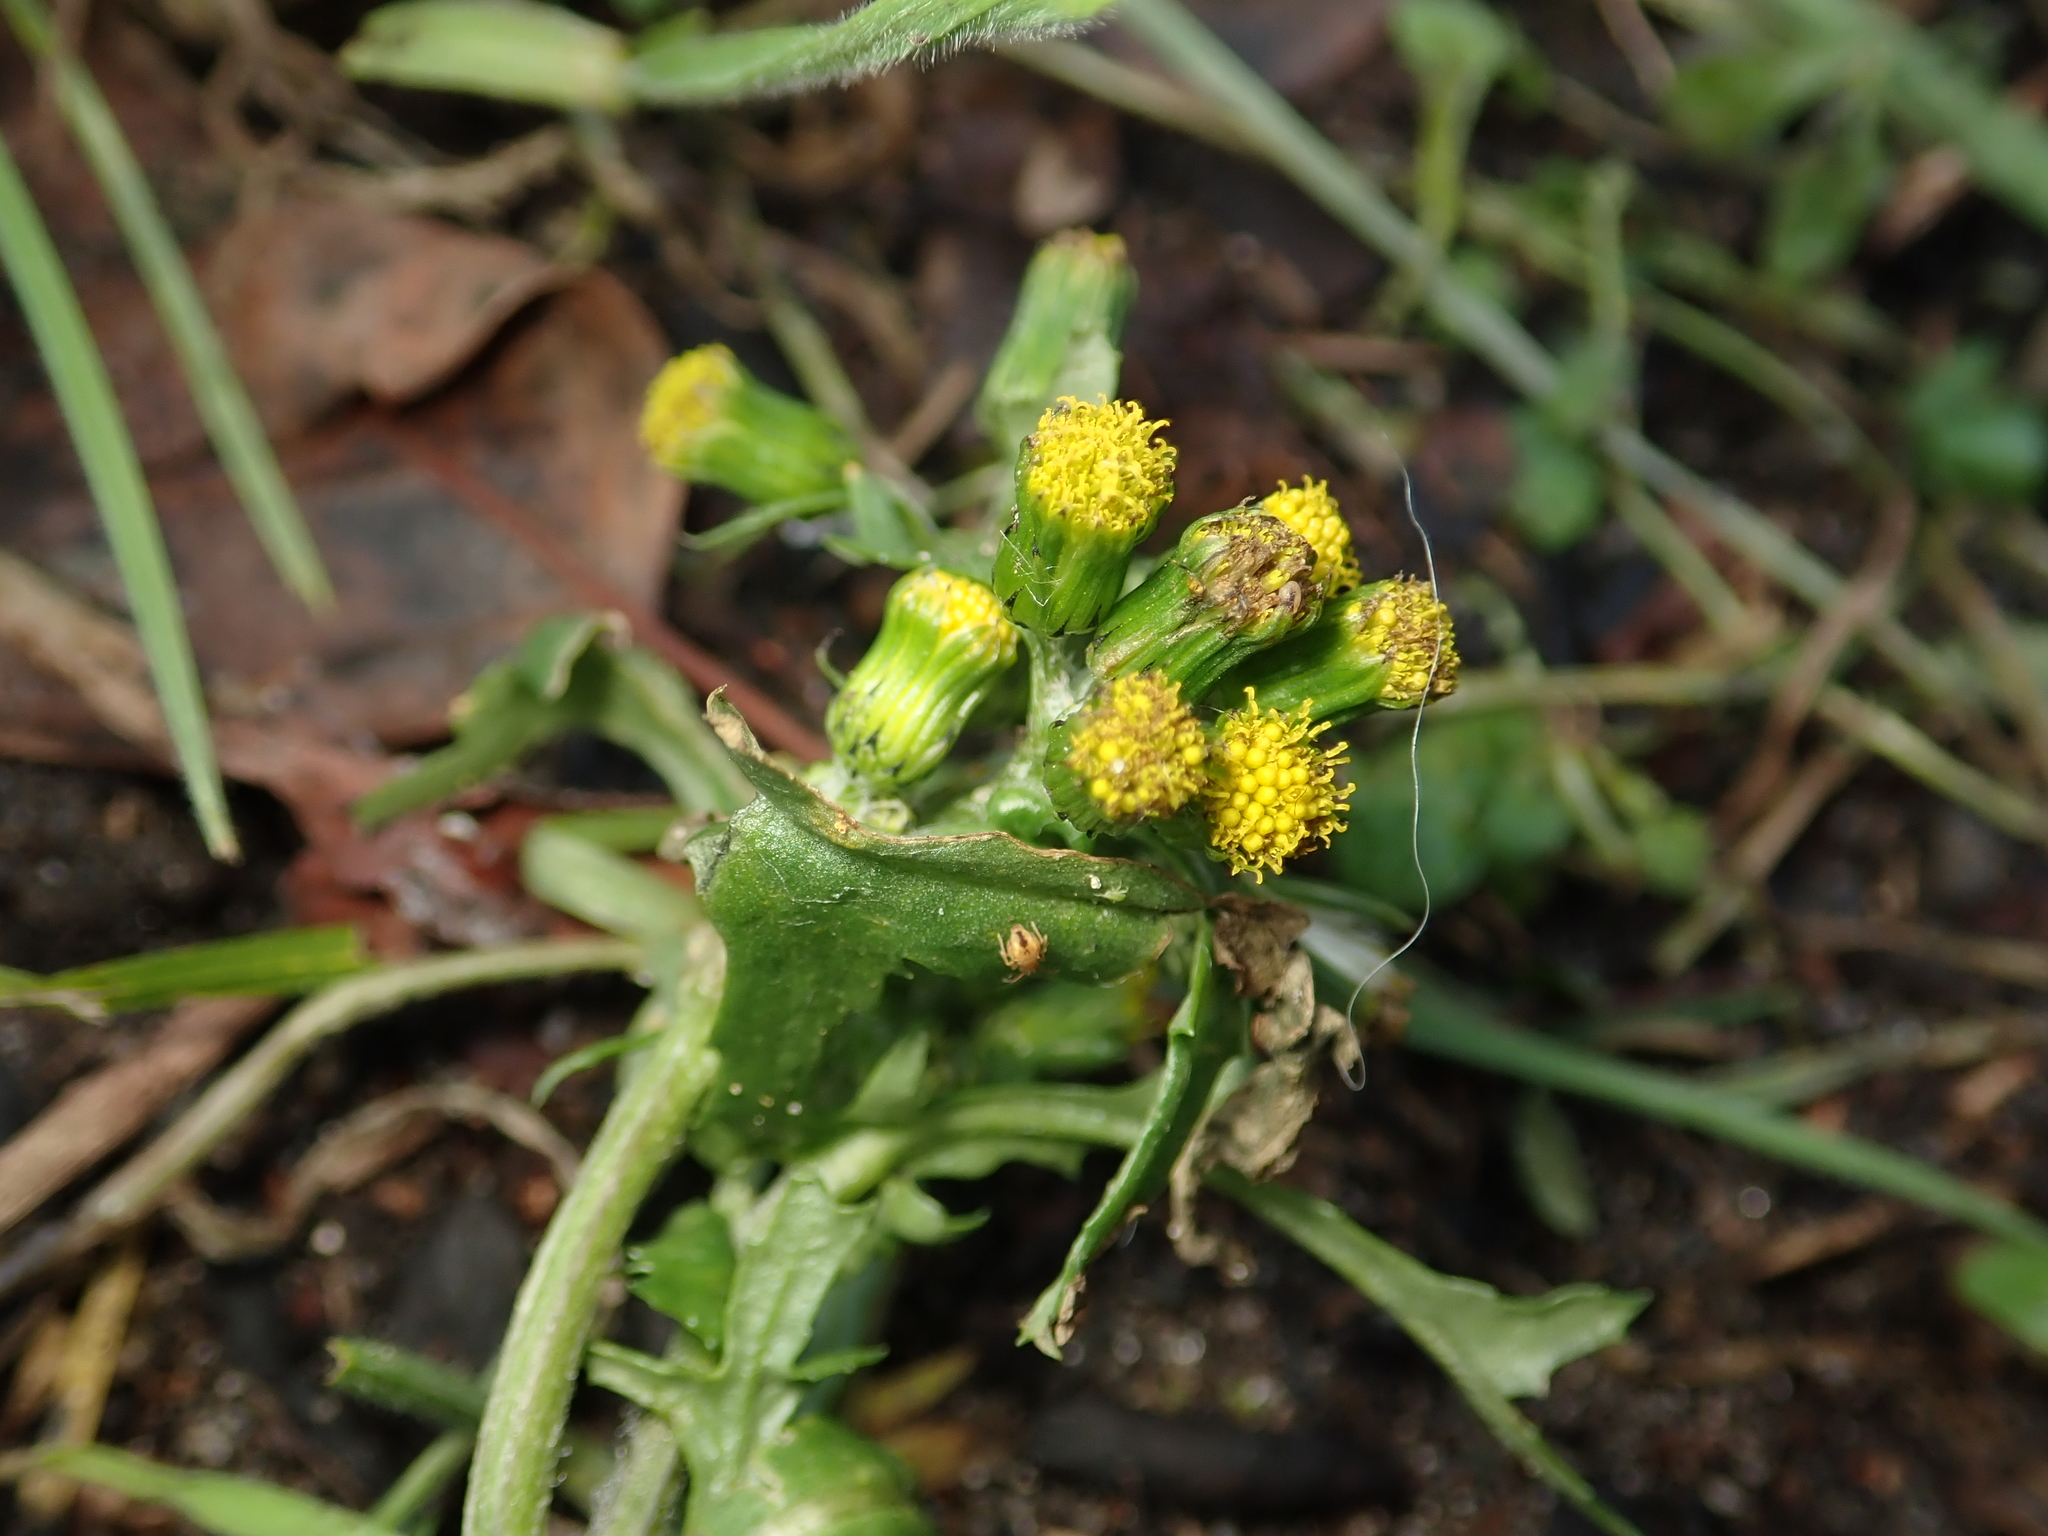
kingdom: Plantae
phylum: Tracheophyta
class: Magnoliopsida
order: Asterales
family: Asteraceae
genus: Senecio
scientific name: Senecio vulgaris
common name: Old-man-in-the-spring
